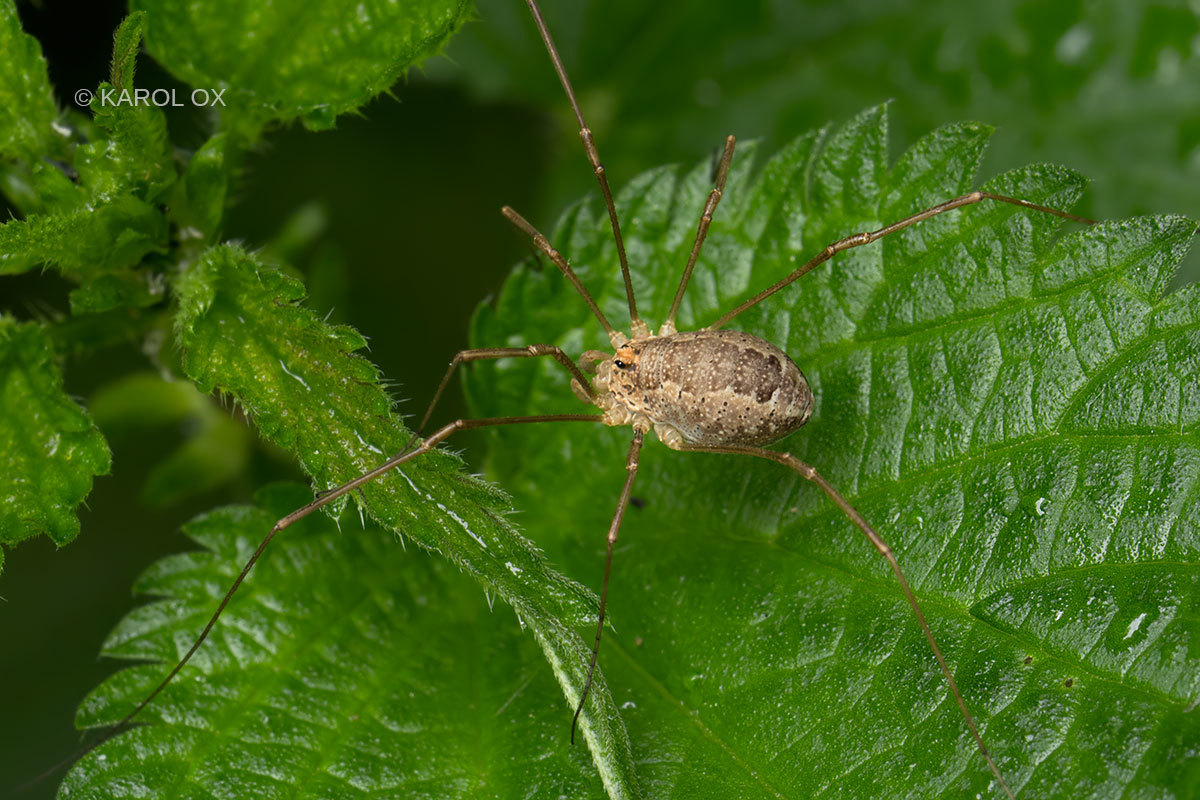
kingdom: Animalia
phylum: Arthropoda
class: Arachnida
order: Opiliones
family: Phalangiidae
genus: Rilaena
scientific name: Rilaena triangularis
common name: Spring harvestman
